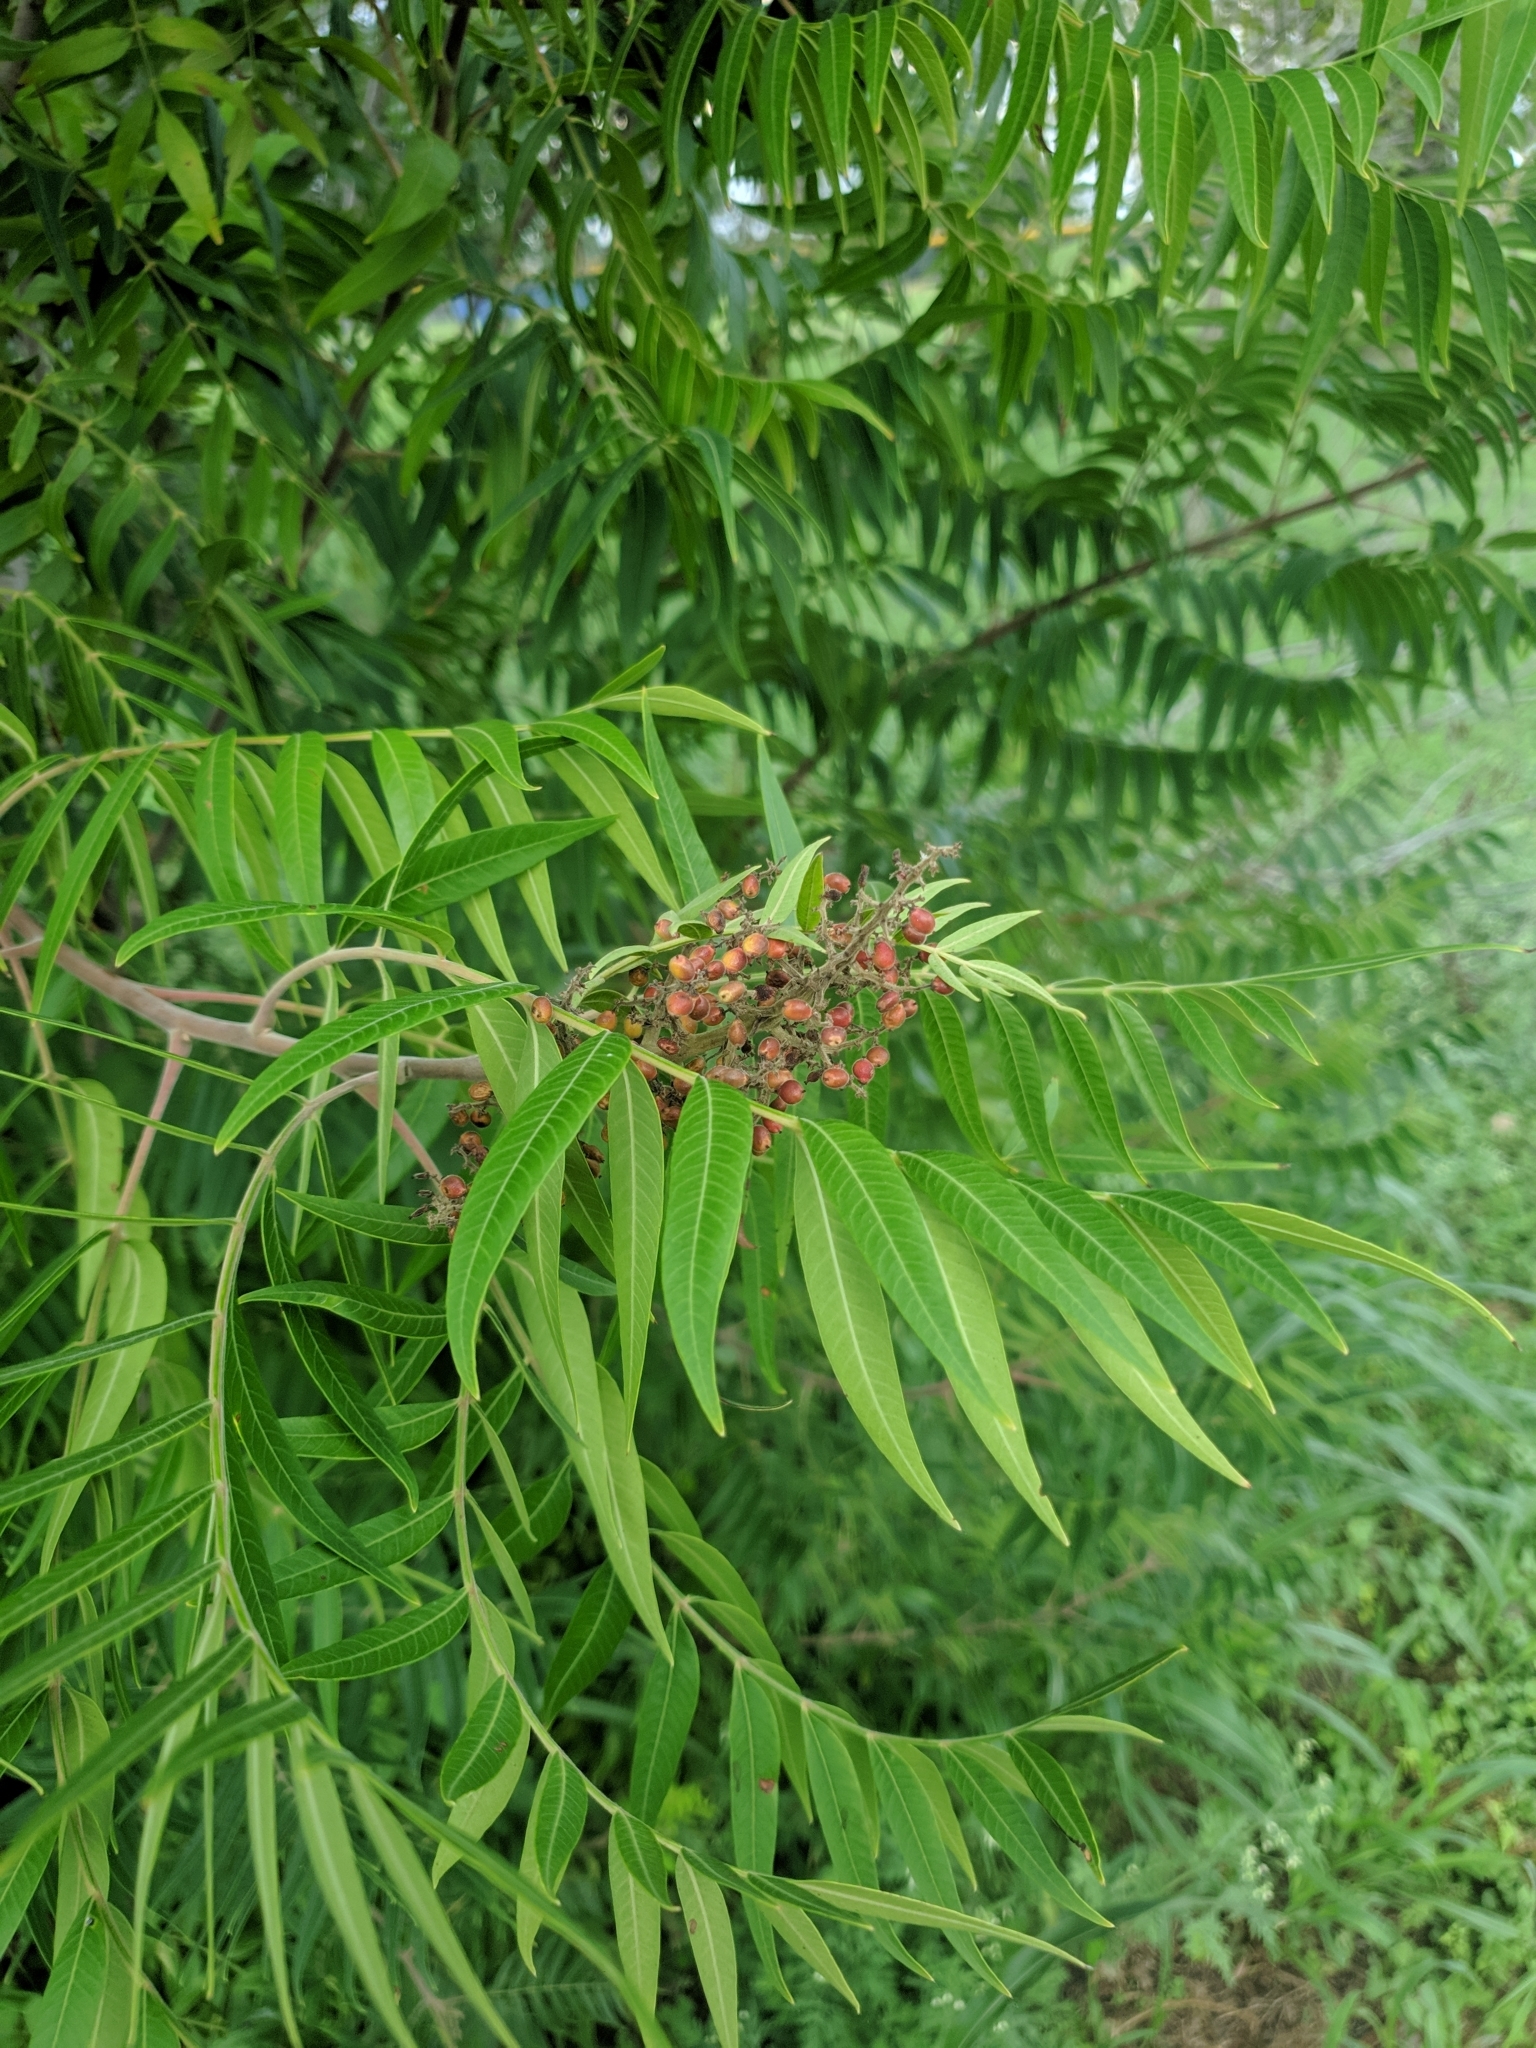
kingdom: Plantae
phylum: Tracheophyta
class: Magnoliopsida
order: Sapindales
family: Anacardiaceae
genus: Rhus
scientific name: Rhus lanceolata
